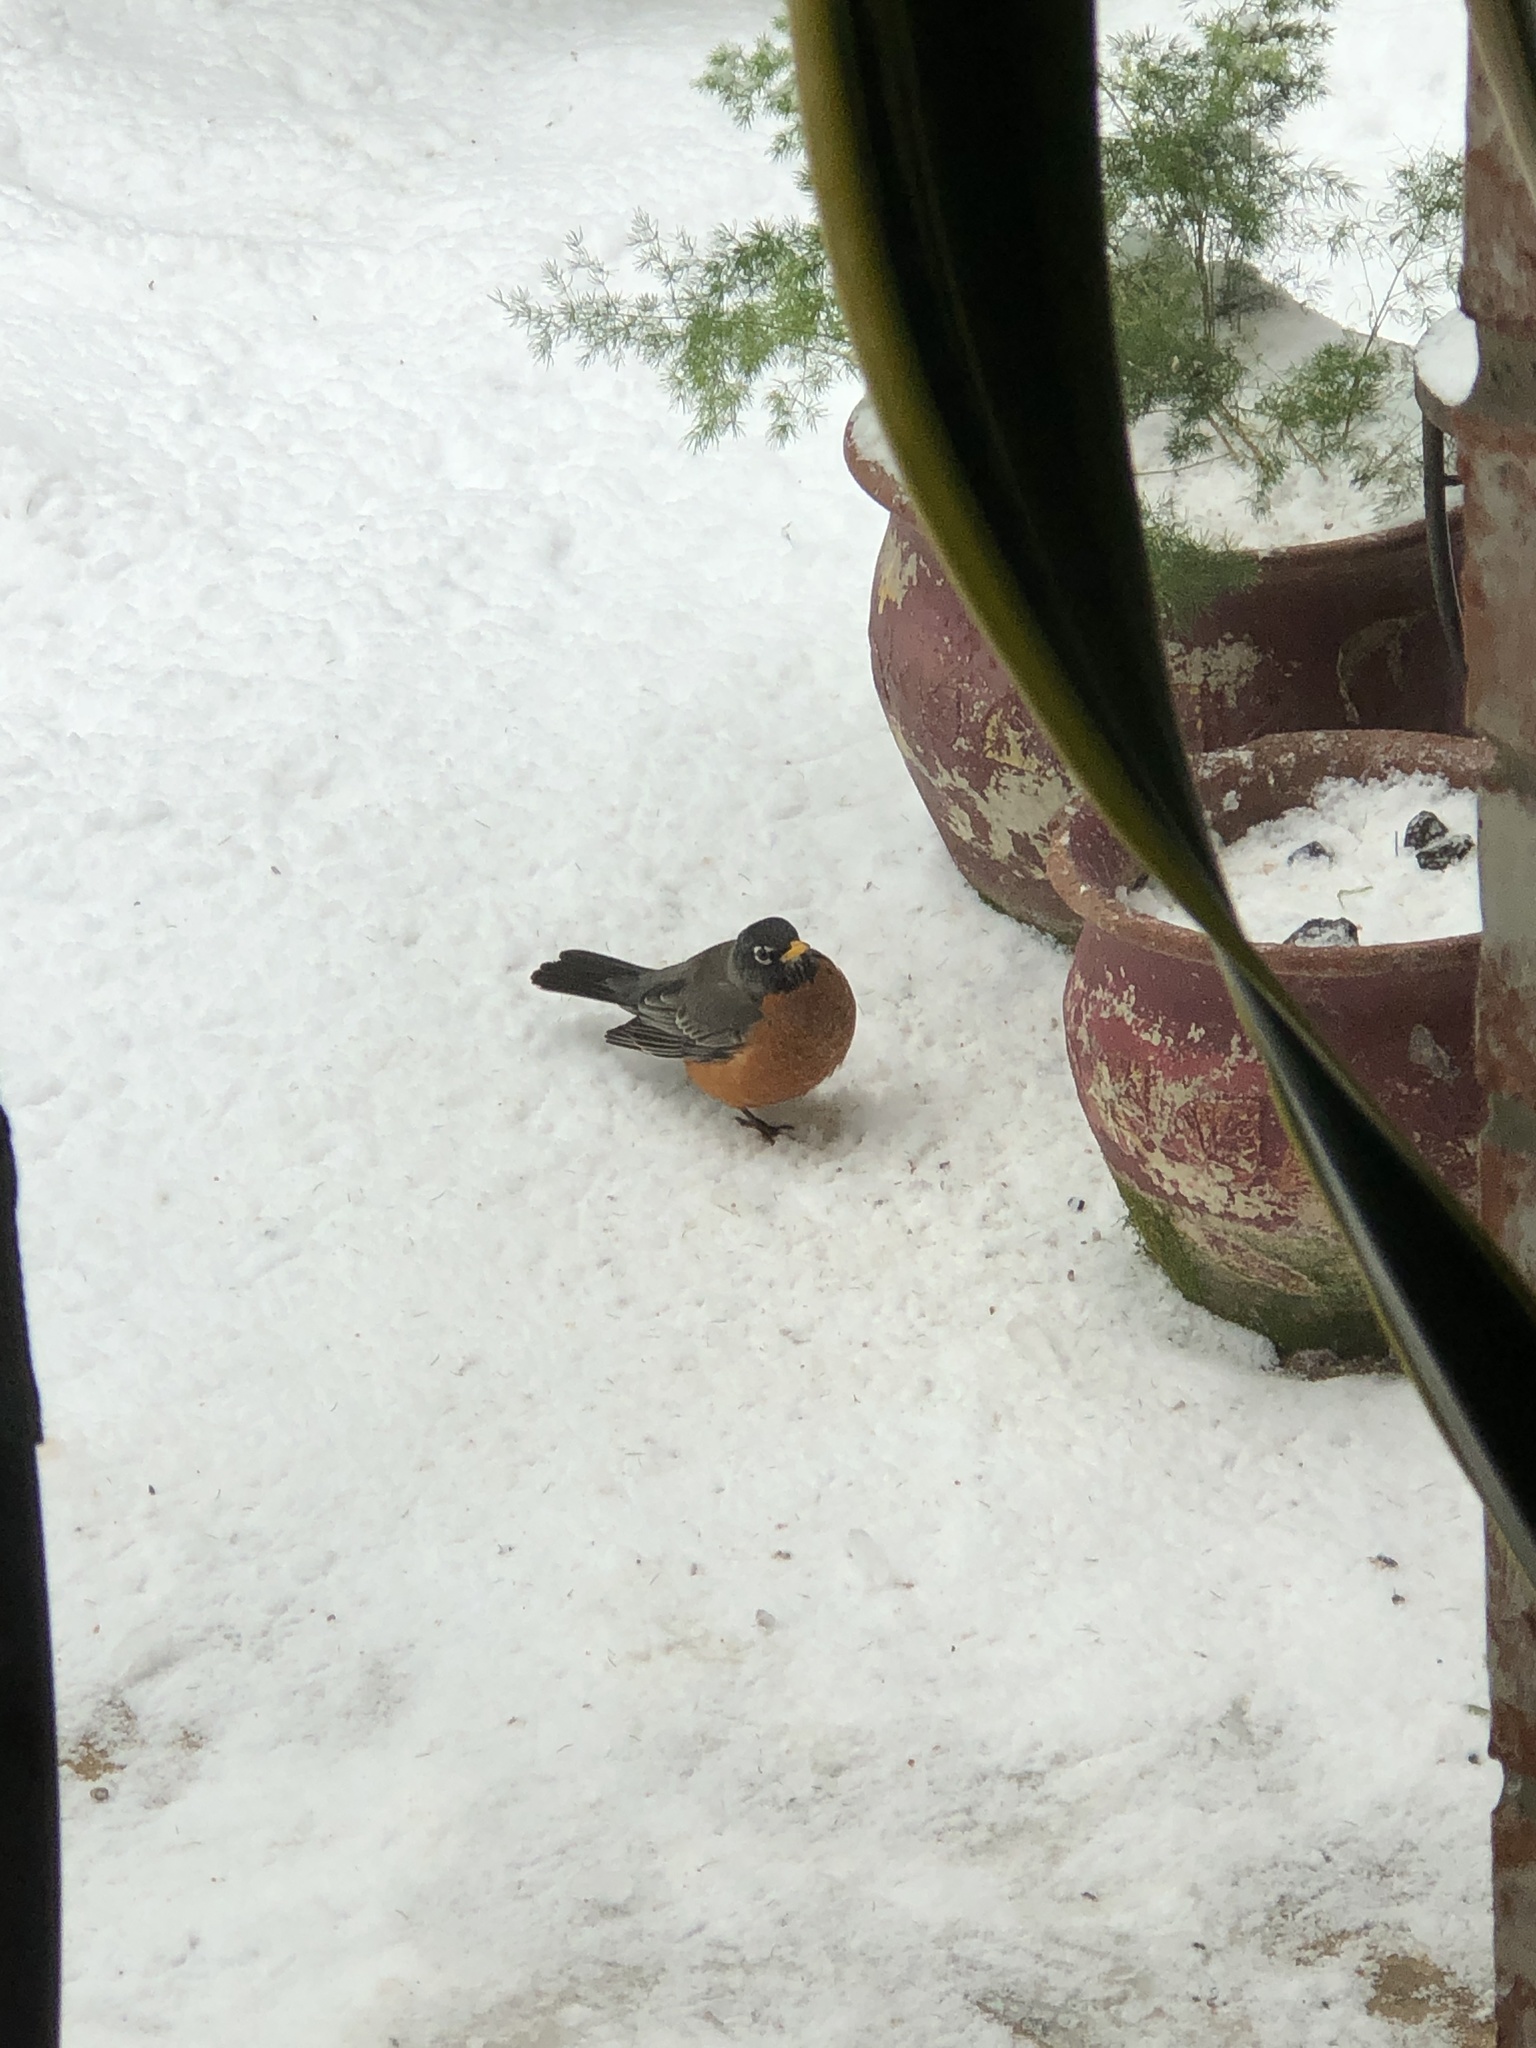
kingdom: Animalia
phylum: Chordata
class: Aves
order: Passeriformes
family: Turdidae
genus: Turdus
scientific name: Turdus migratorius
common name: American robin
